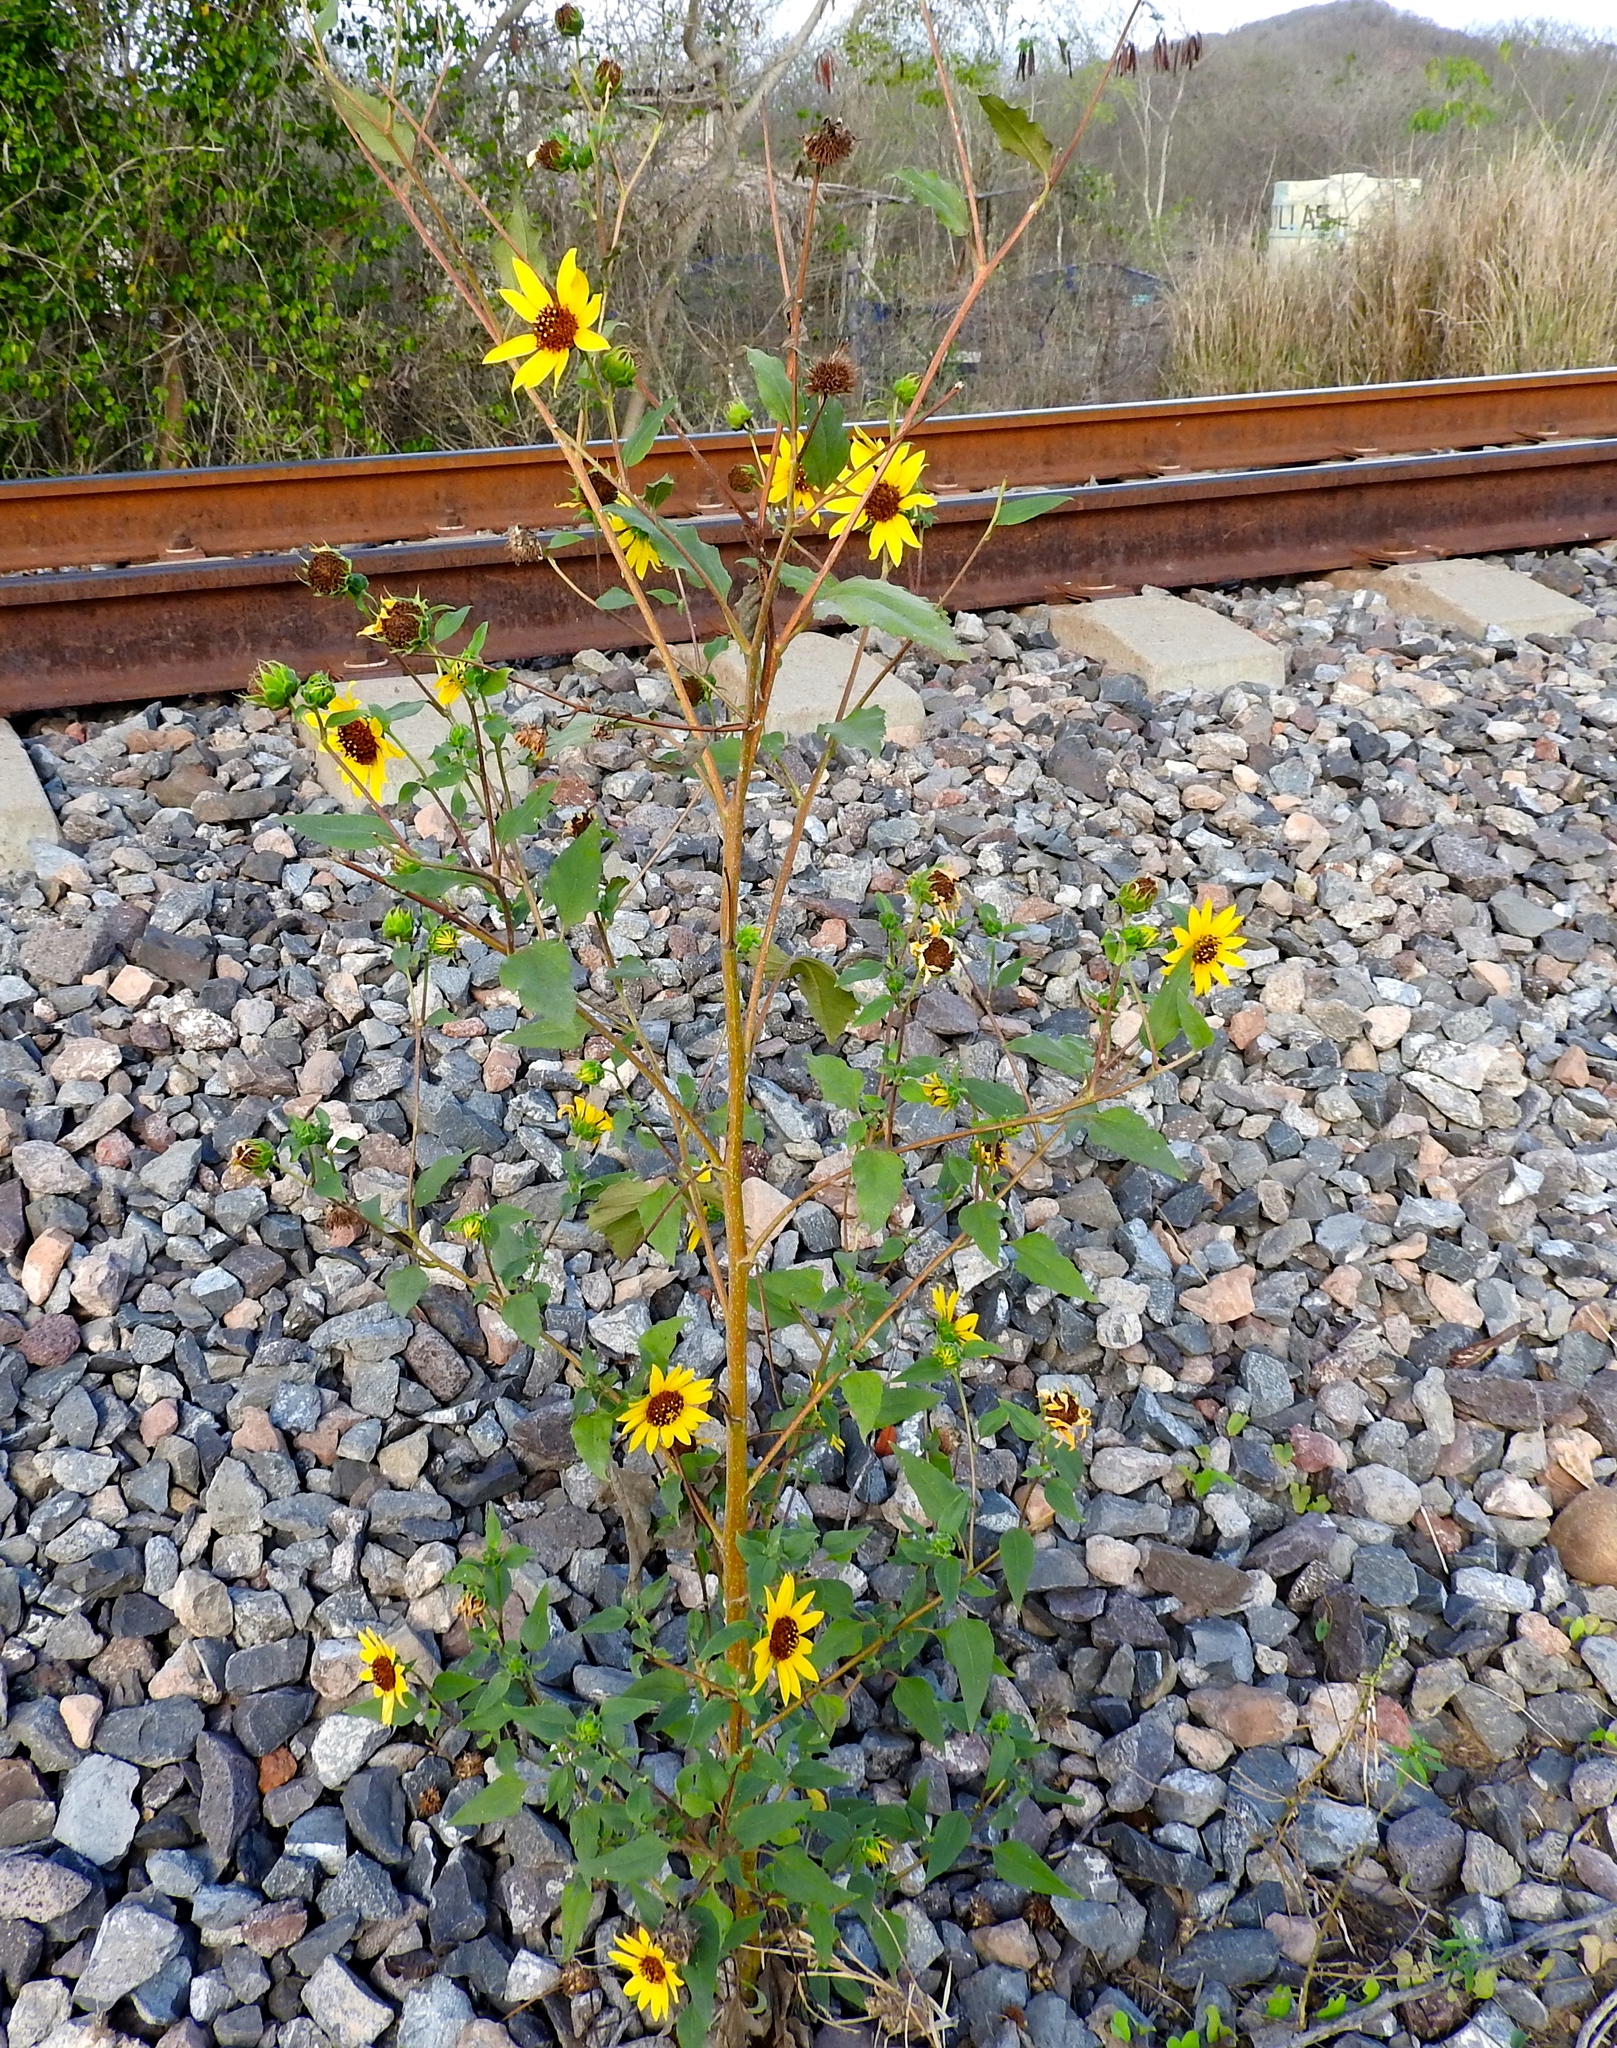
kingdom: Plantae
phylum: Tracheophyta
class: Magnoliopsida
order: Asterales
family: Asteraceae
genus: Helianthus
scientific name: Helianthus annuus
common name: Sunflower
